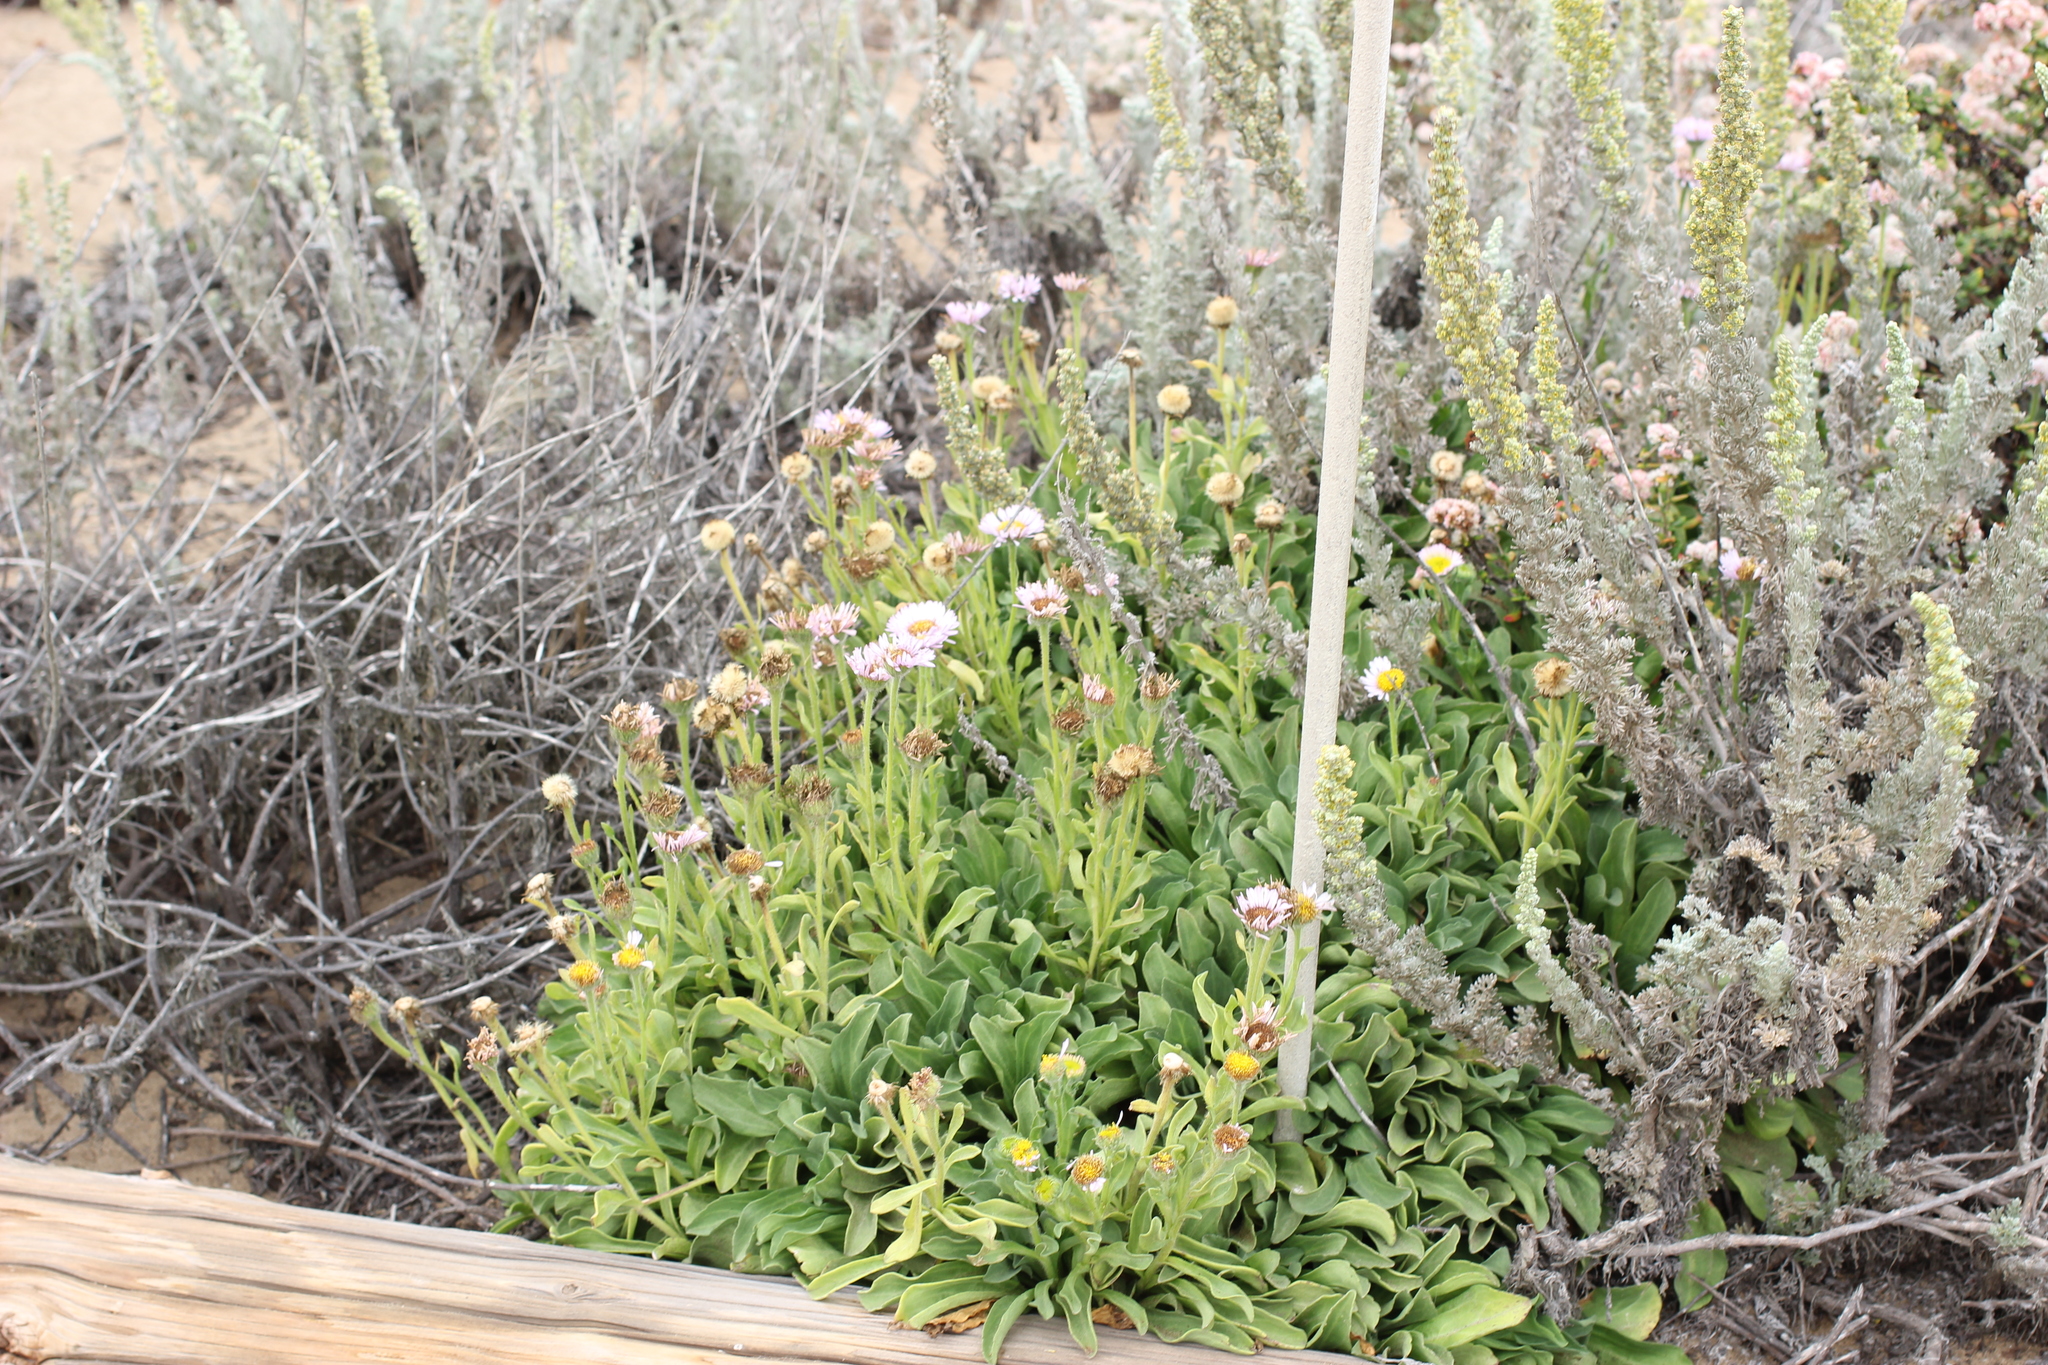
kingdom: Plantae
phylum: Tracheophyta
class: Magnoliopsida
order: Asterales
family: Asteraceae
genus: Erigeron
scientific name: Erigeron glaucus
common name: Seaside daisy
